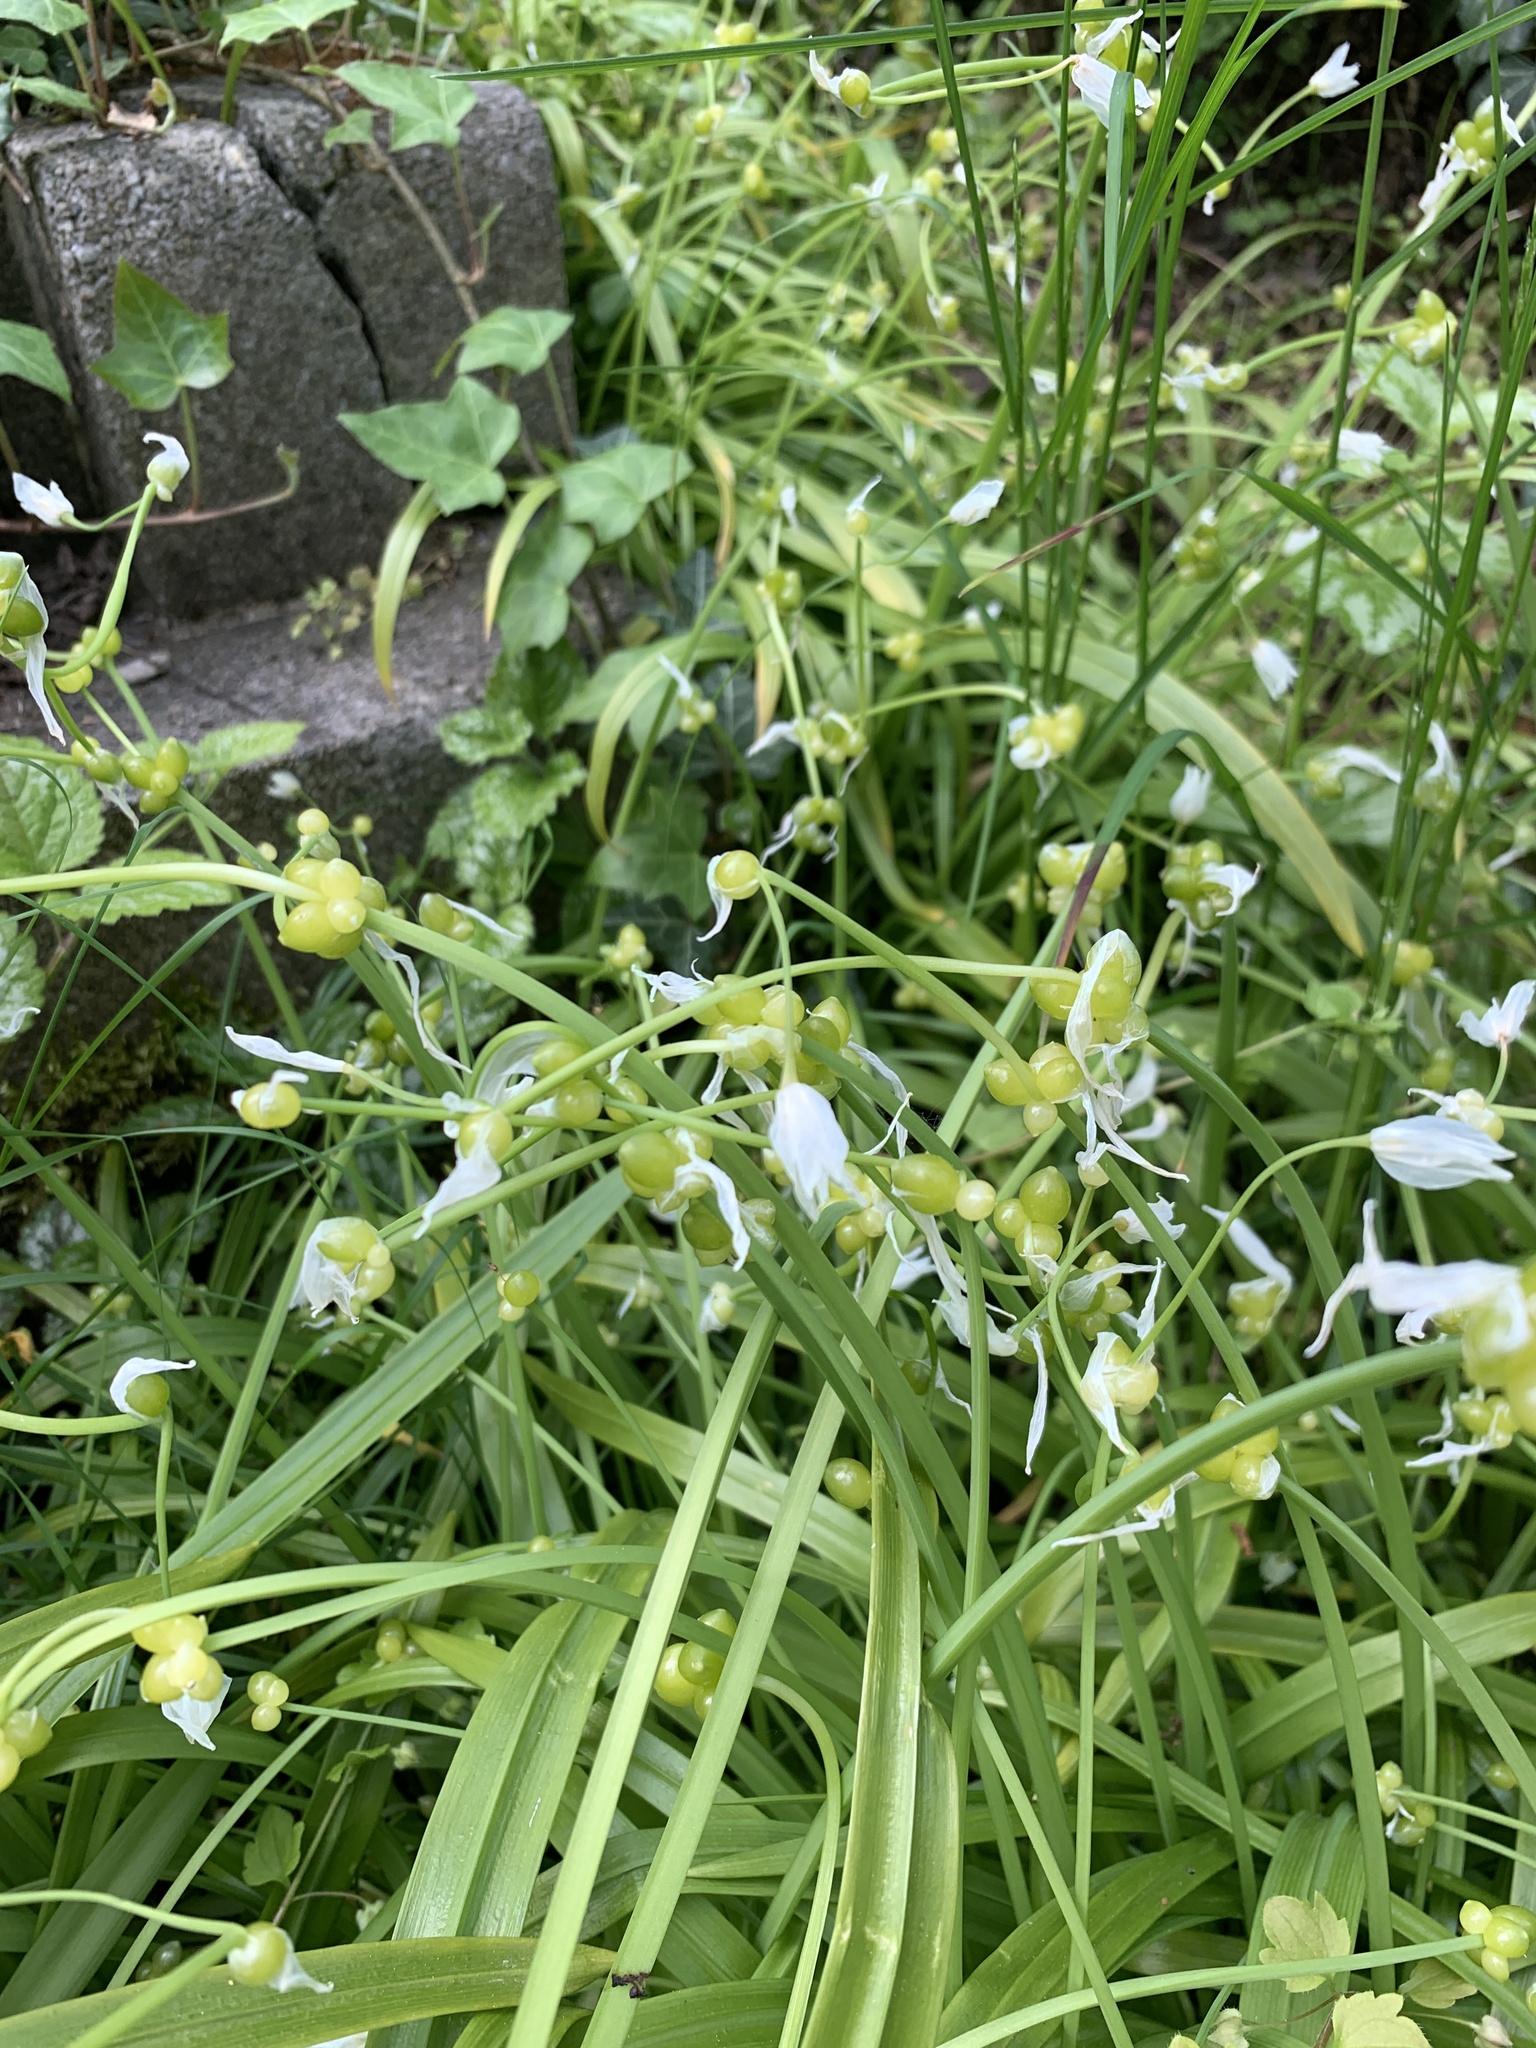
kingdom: Plantae
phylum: Tracheophyta
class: Liliopsida
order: Asparagales
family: Amaryllidaceae
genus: Allium
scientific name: Allium paradoxum
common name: Few-flowered garlic
